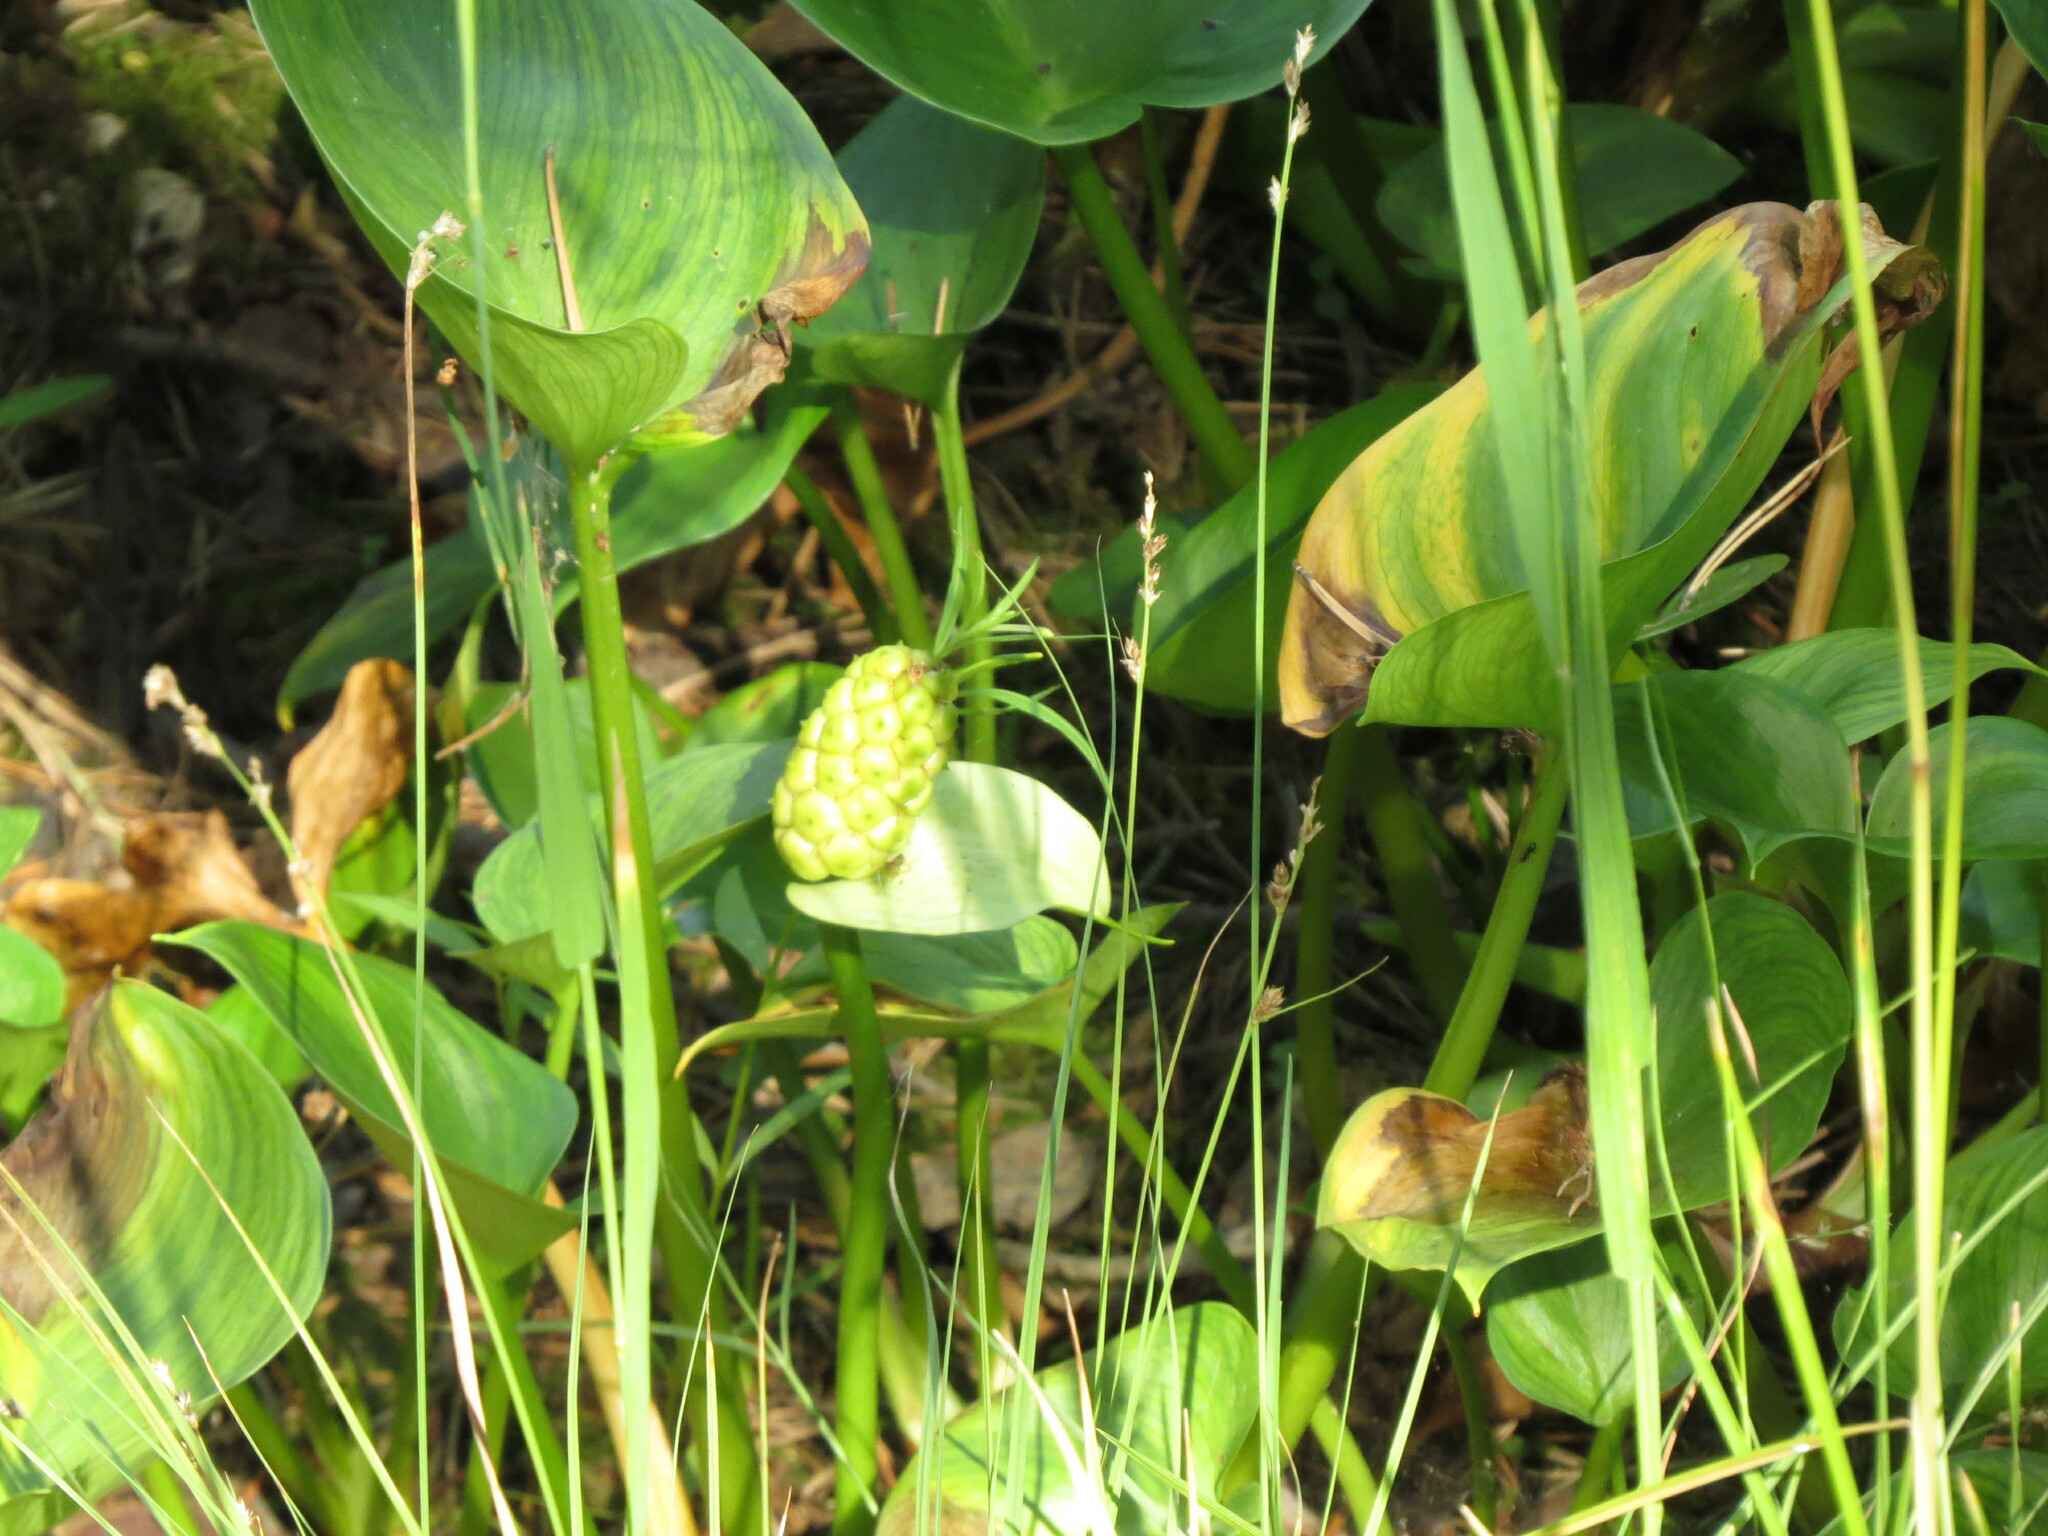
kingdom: Plantae
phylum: Tracheophyta
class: Liliopsida
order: Alismatales
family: Araceae
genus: Calla
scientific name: Calla palustris
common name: Bog arum
